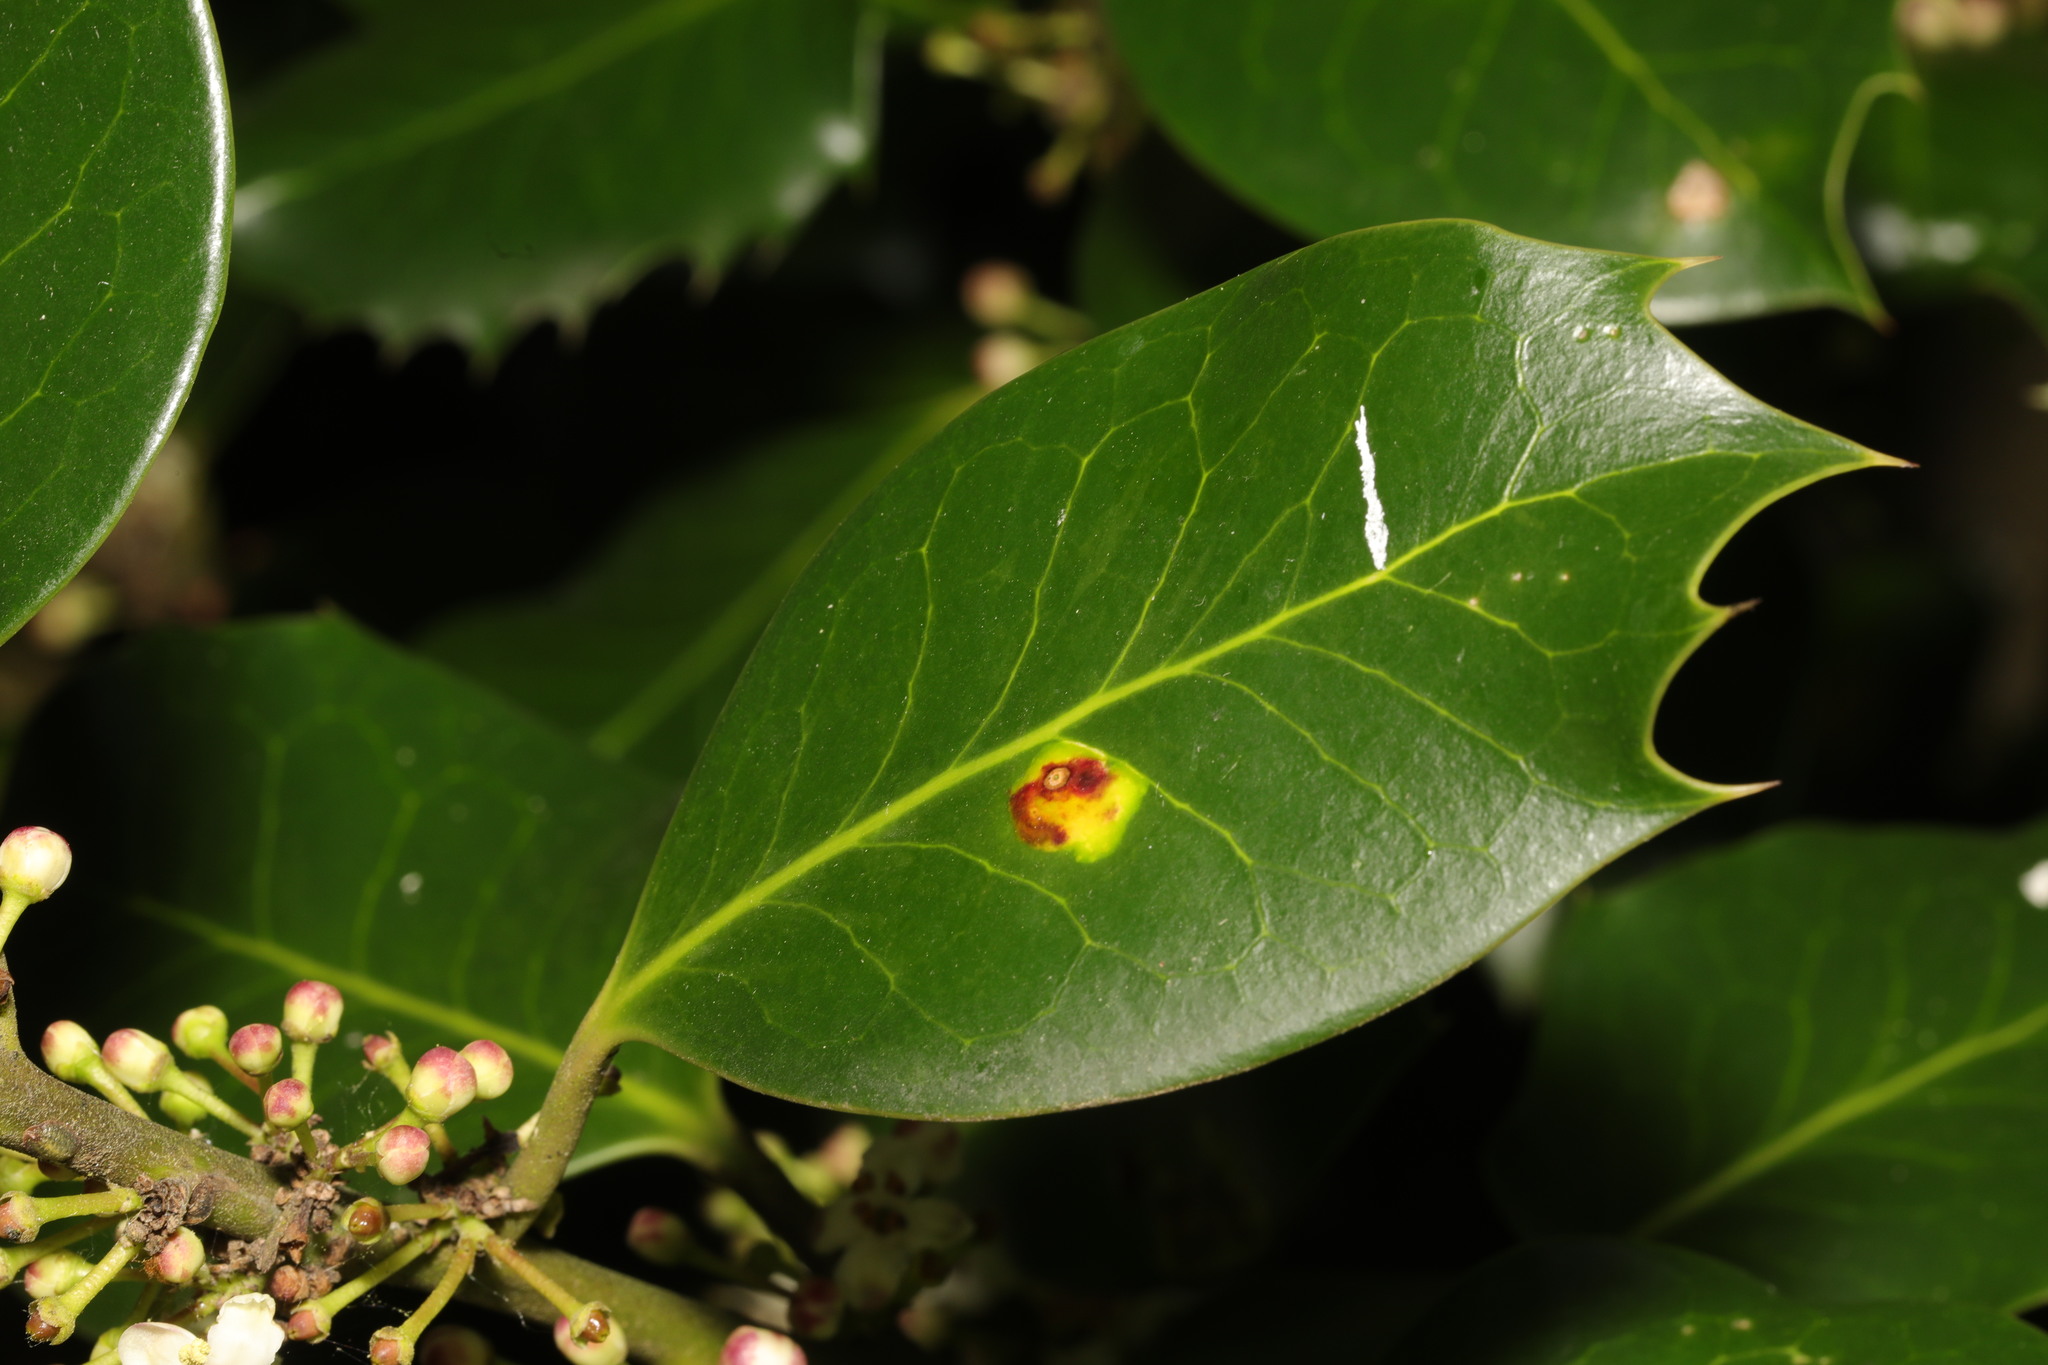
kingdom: Animalia
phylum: Arthropoda
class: Insecta
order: Diptera
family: Agromyzidae
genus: Phytomyza
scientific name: Phytomyza ilicis
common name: Holly leafminer
